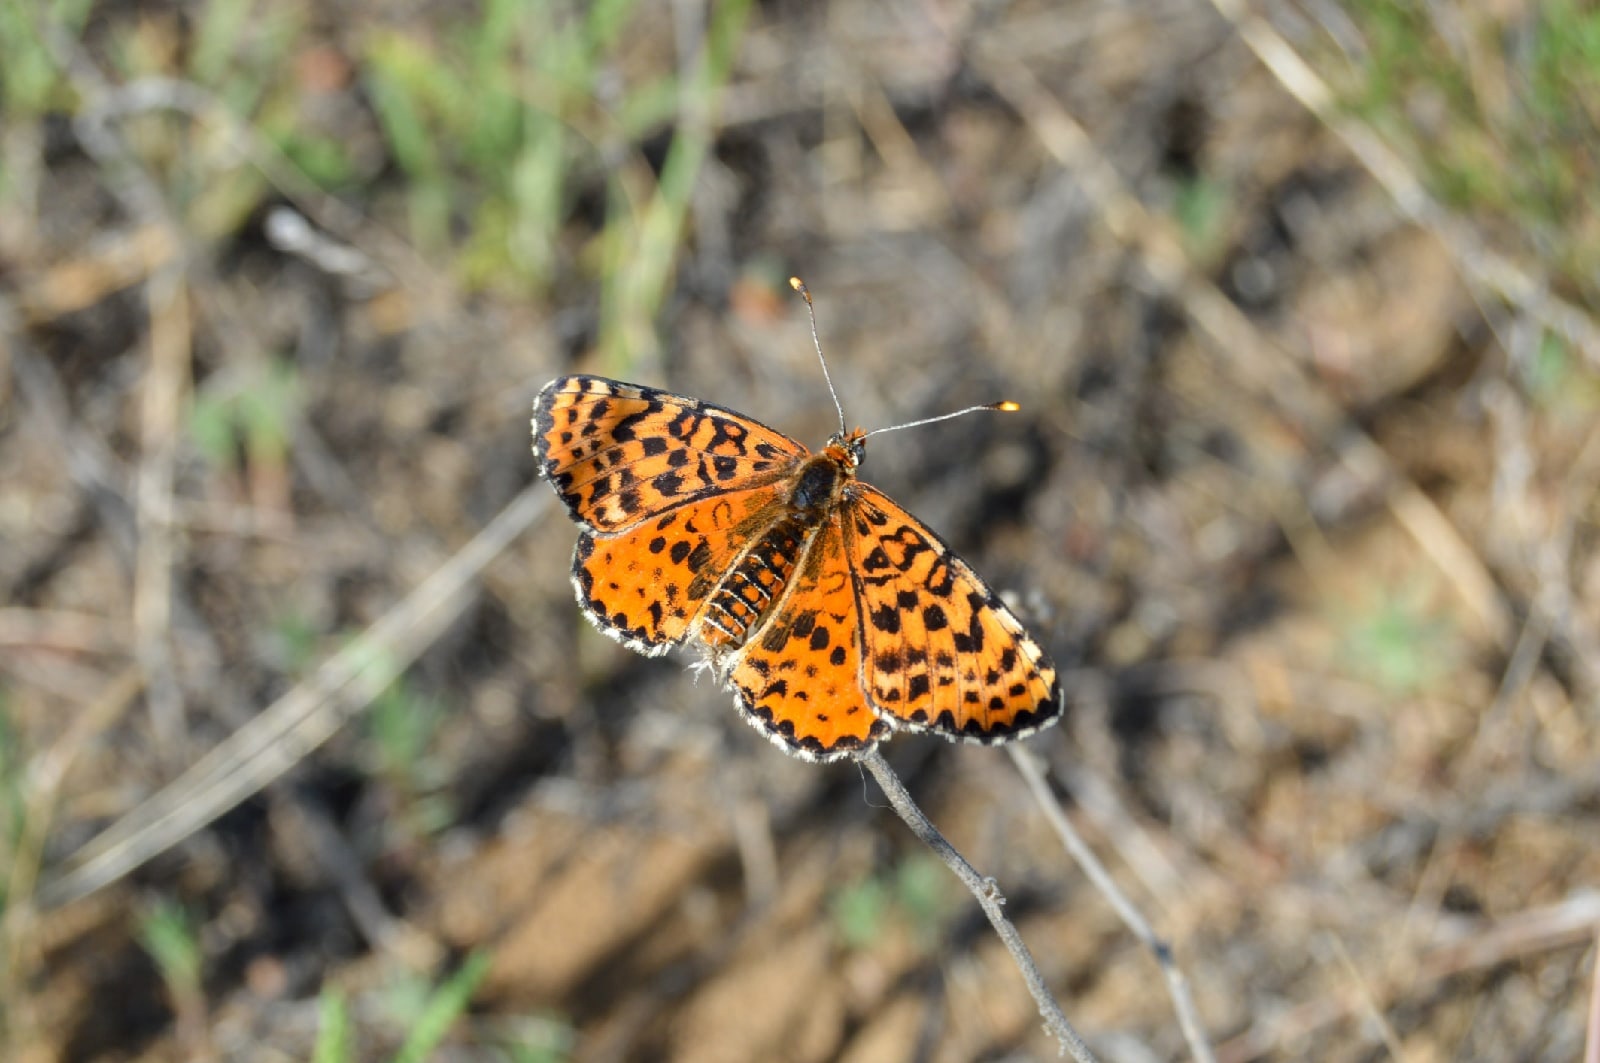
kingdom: Animalia
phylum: Arthropoda
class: Insecta
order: Lepidoptera
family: Nymphalidae
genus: Melitaea
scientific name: Melitaea didyma
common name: Spotted fritillary
